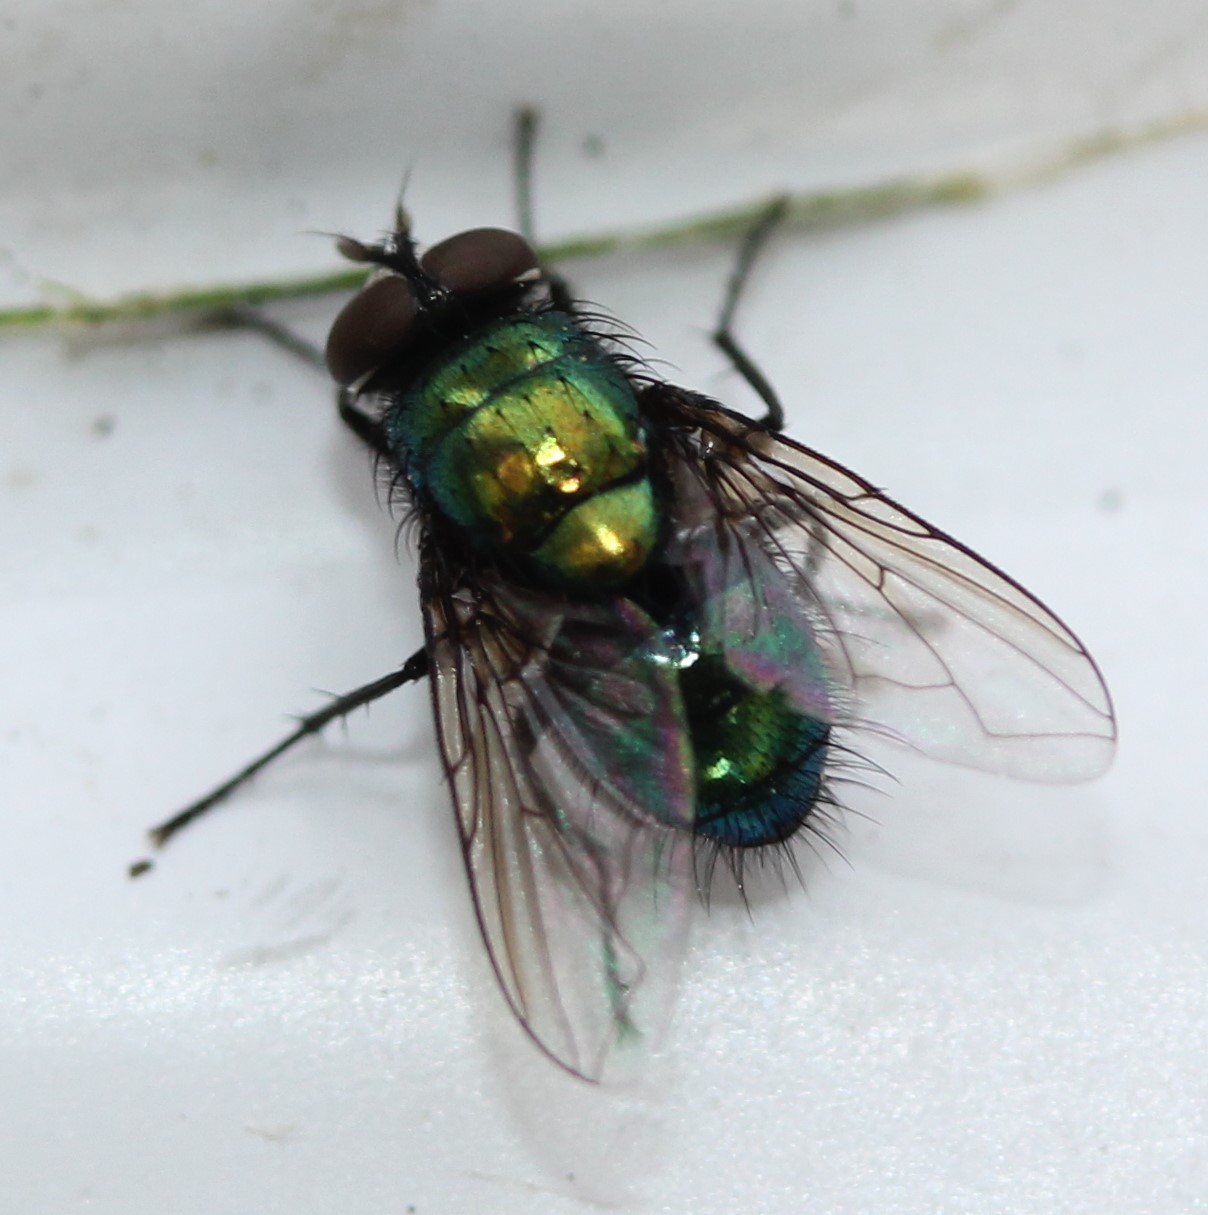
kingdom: Animalia
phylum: Arthropoda
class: Insecta
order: Diptera
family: Calliphoridae
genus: Lucilia
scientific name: Lucilia silvarum
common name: Marsh greenbottle
